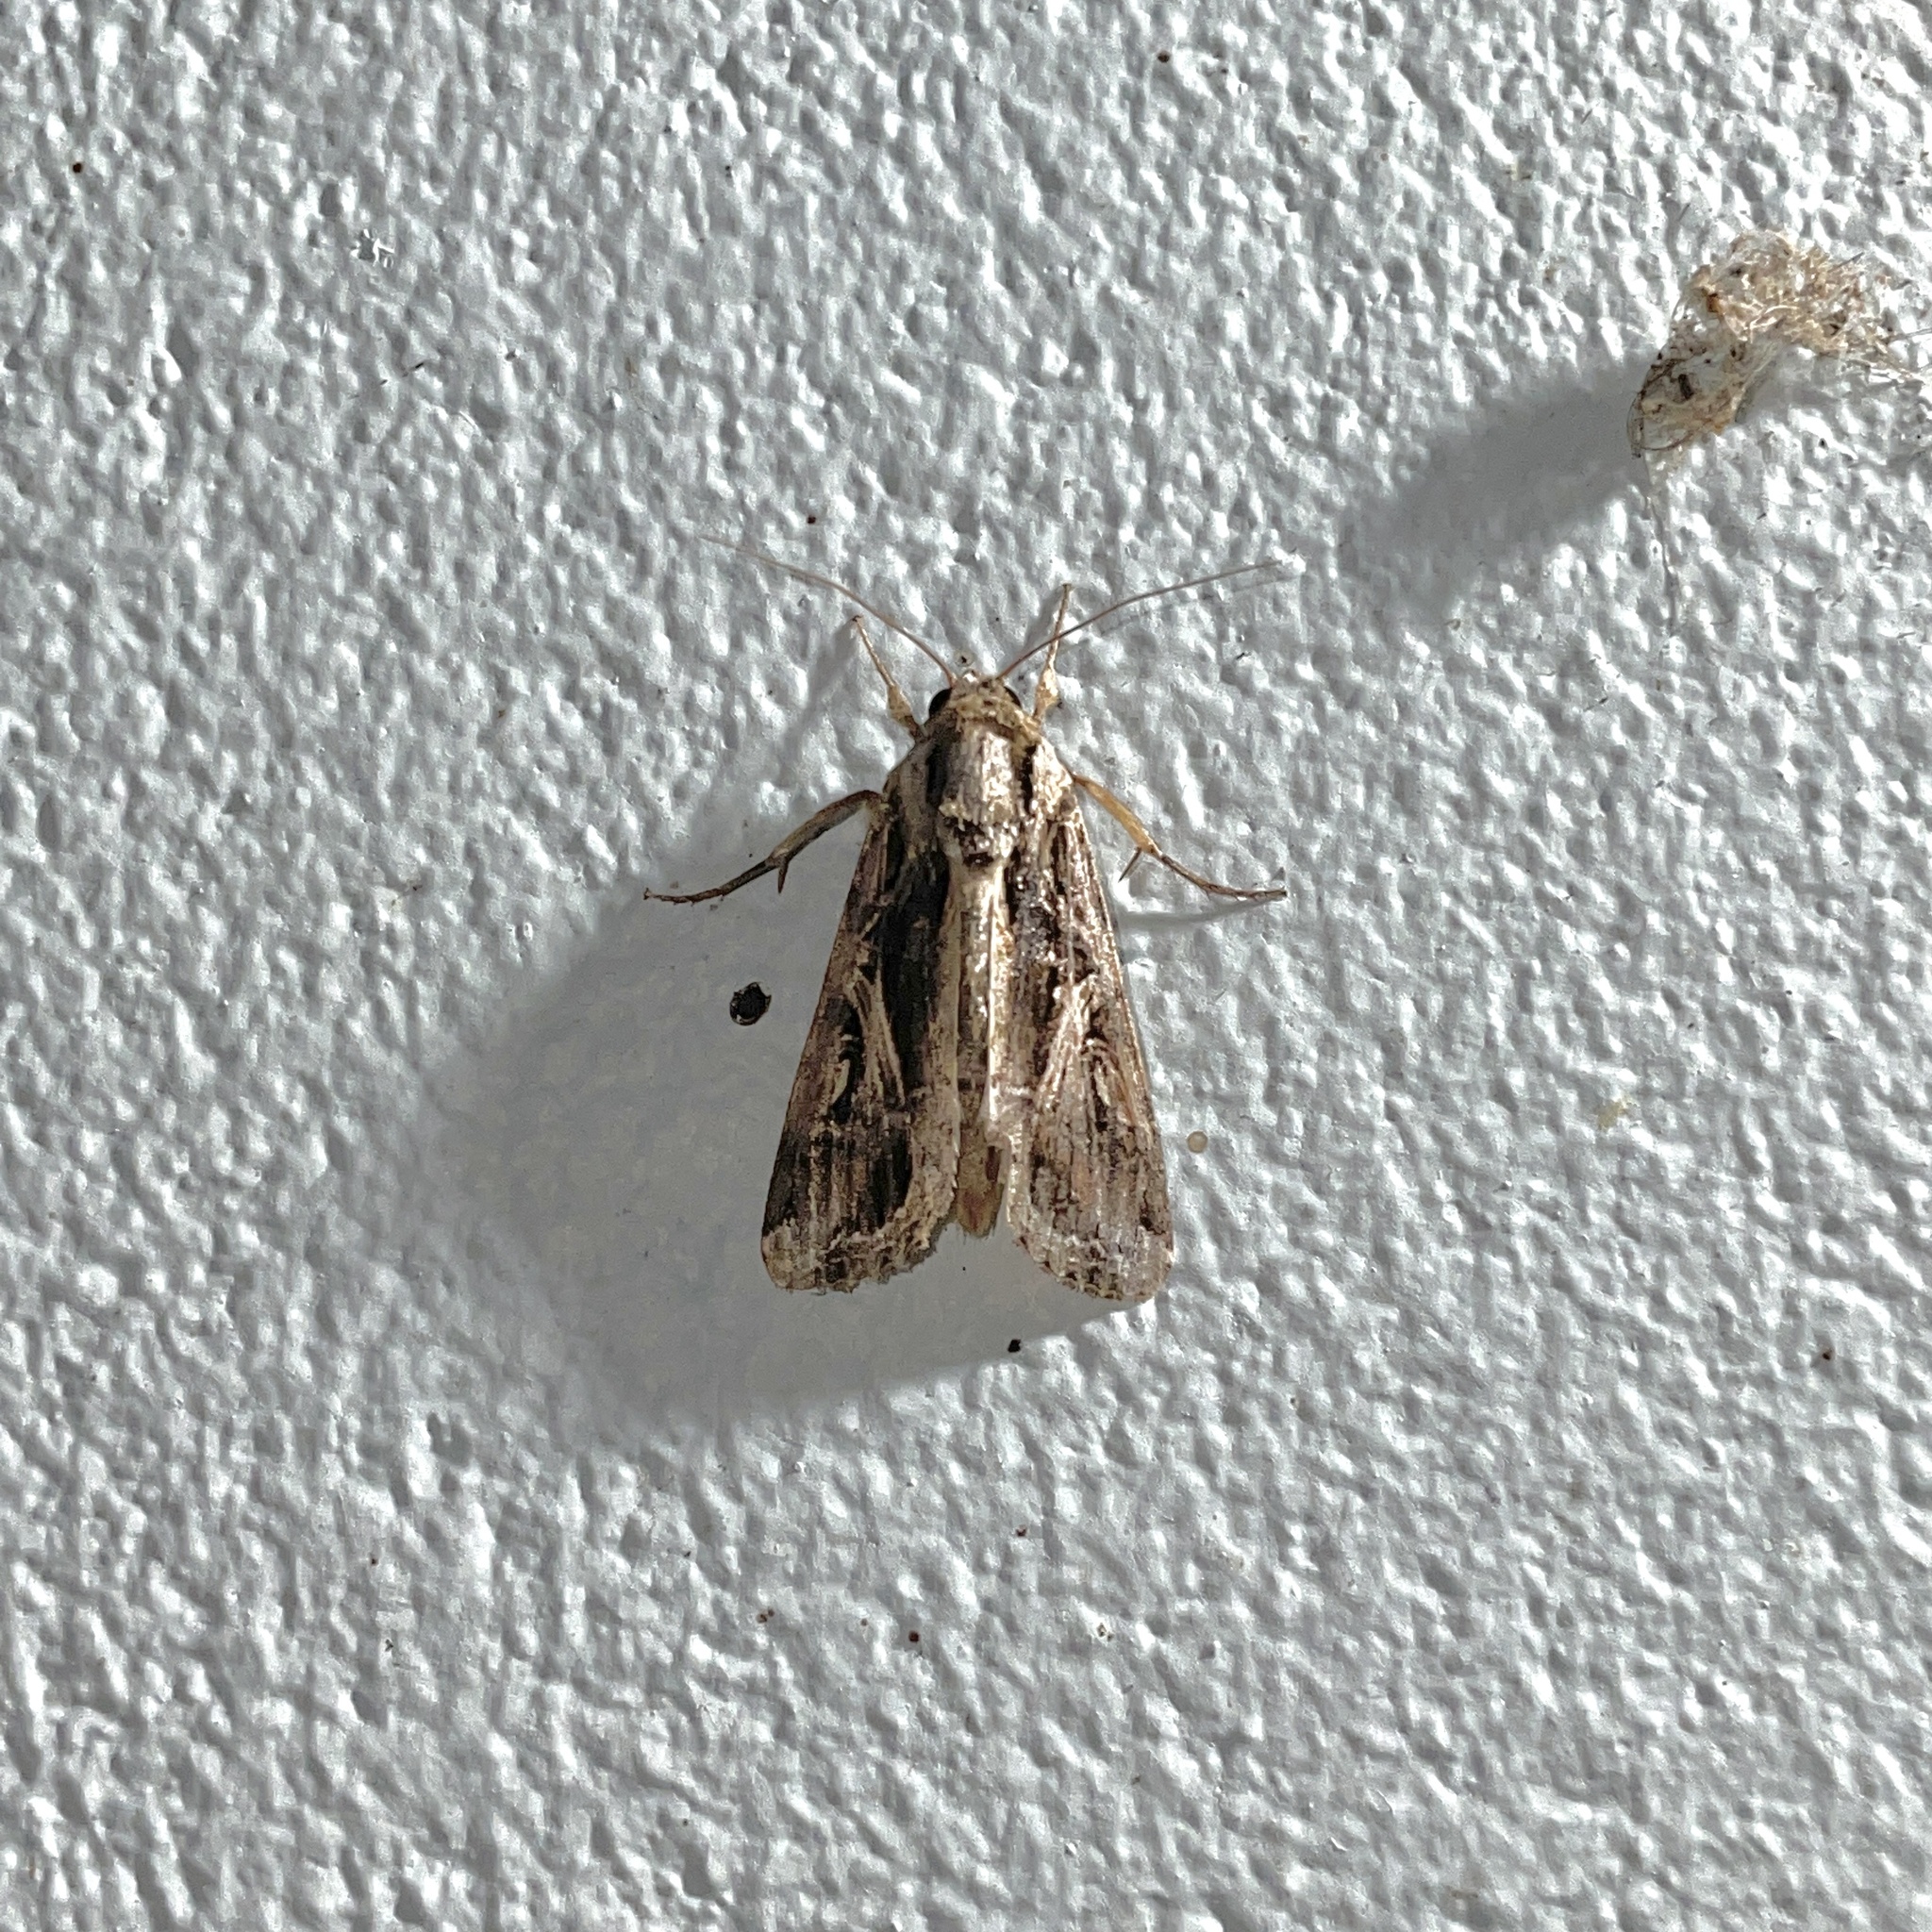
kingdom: Animalia
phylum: Arthropoda
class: Insecta
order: Lepidoptera
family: Noctuidae
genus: Spodoptera
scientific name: Spodoptera dolichos
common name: Sweetpotato armyworm
